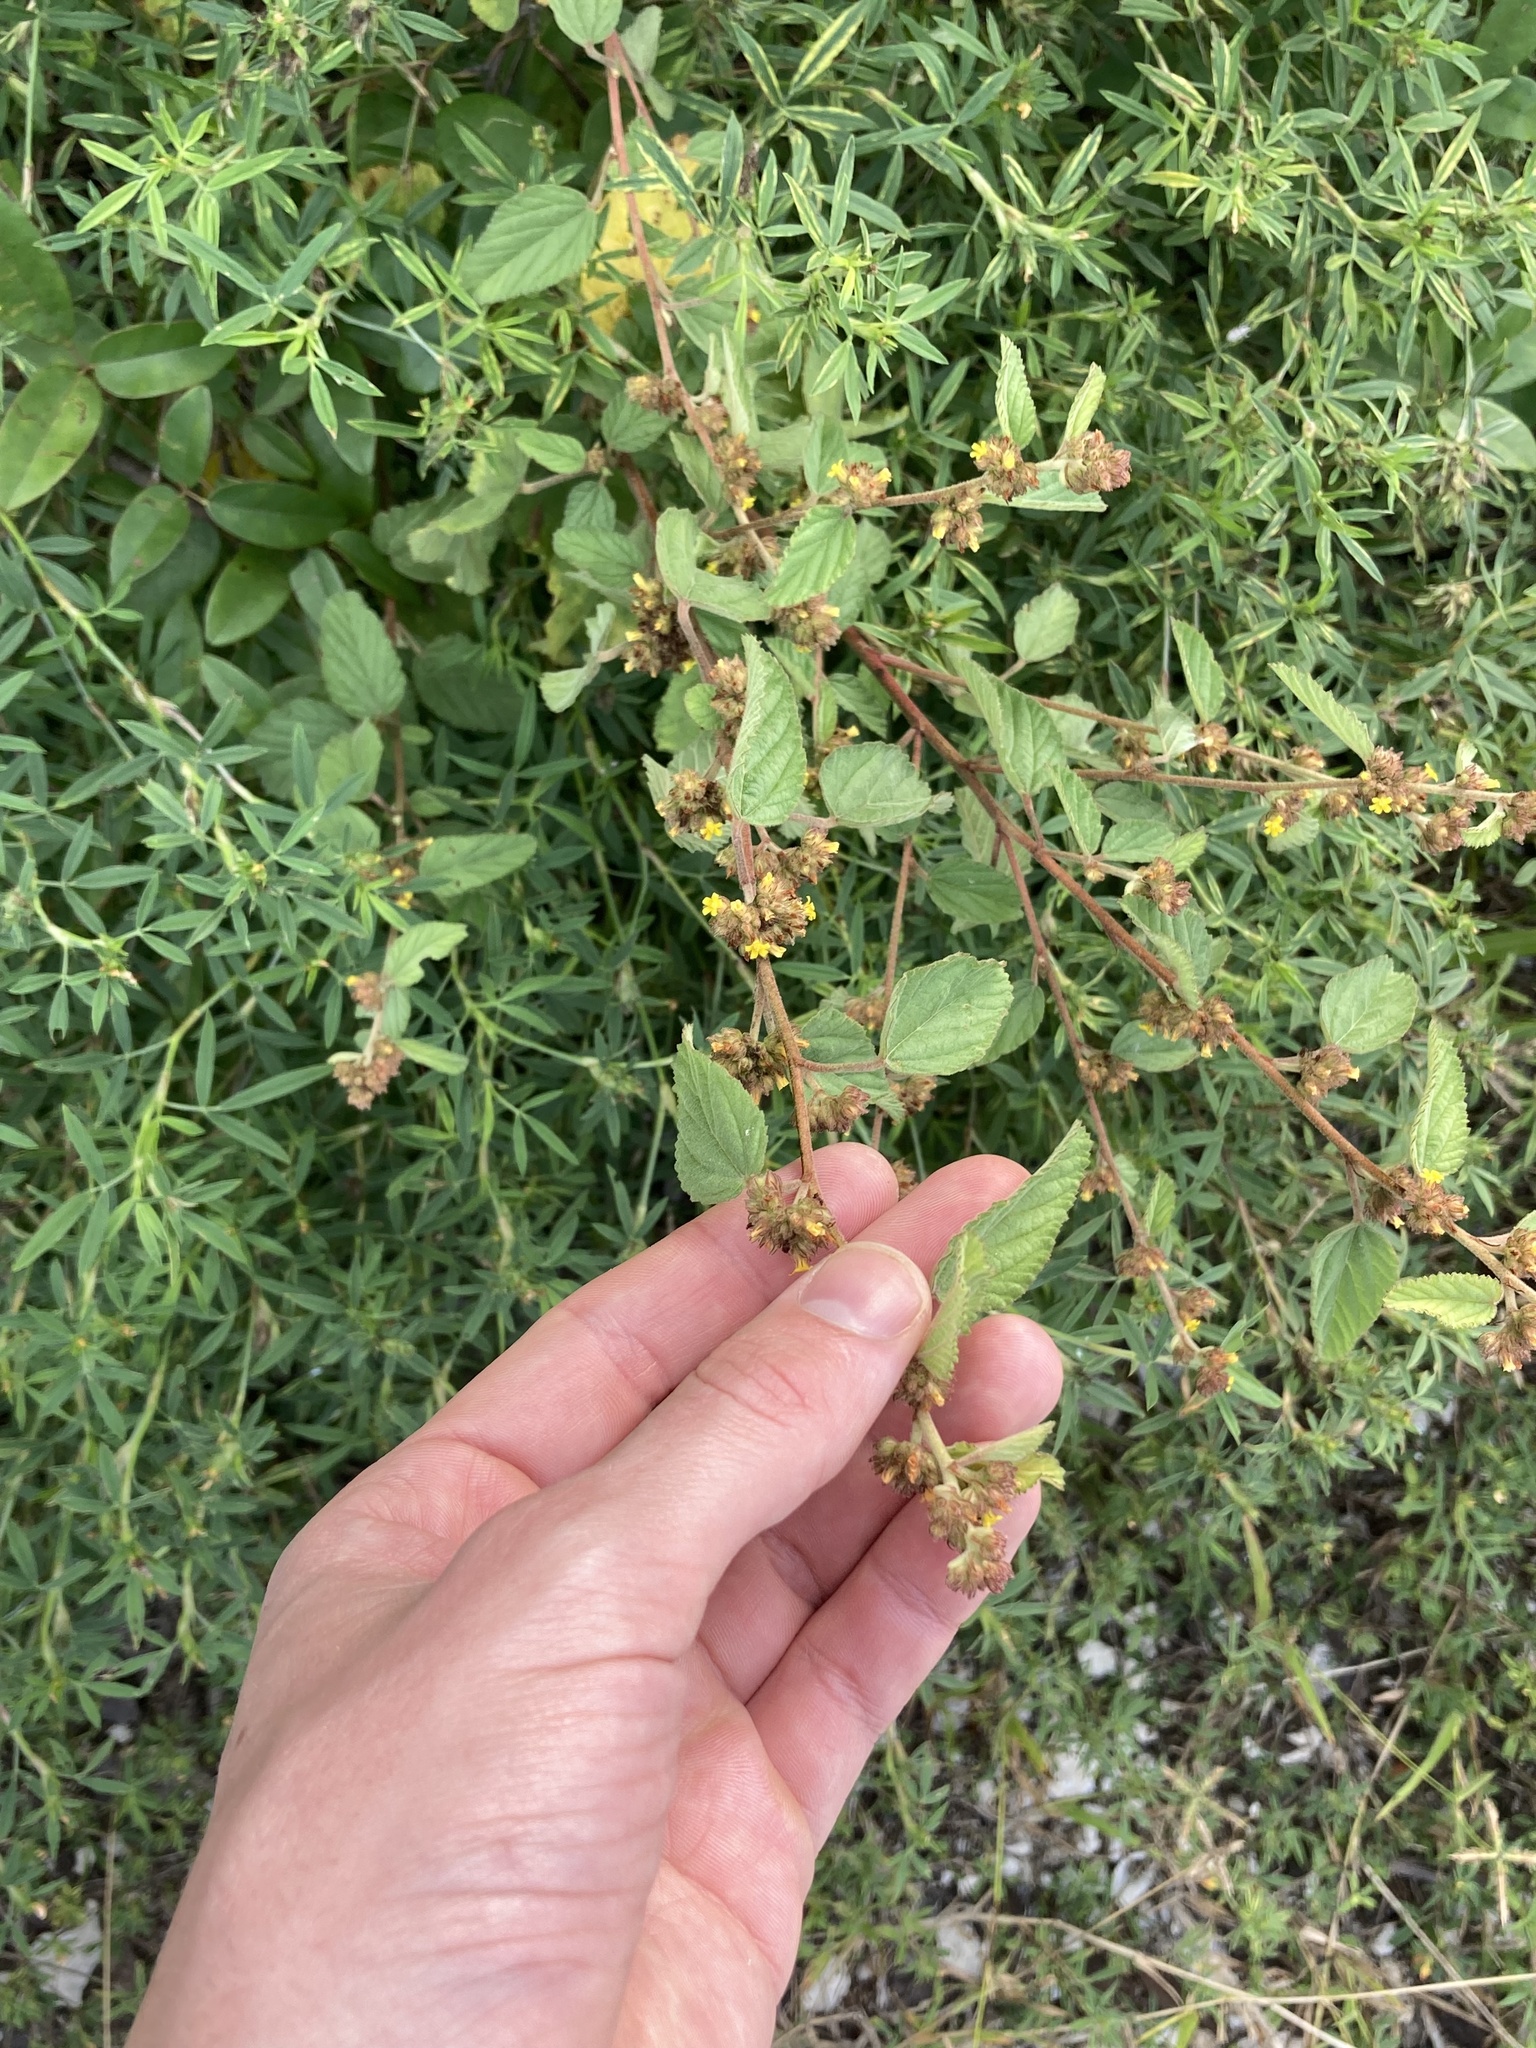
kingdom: Plantae
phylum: Tracheophyta
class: Magnoliopsida
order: Malvales
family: Malvaceae
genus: Waltheria
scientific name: Waltheria indica
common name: Leather-coat
